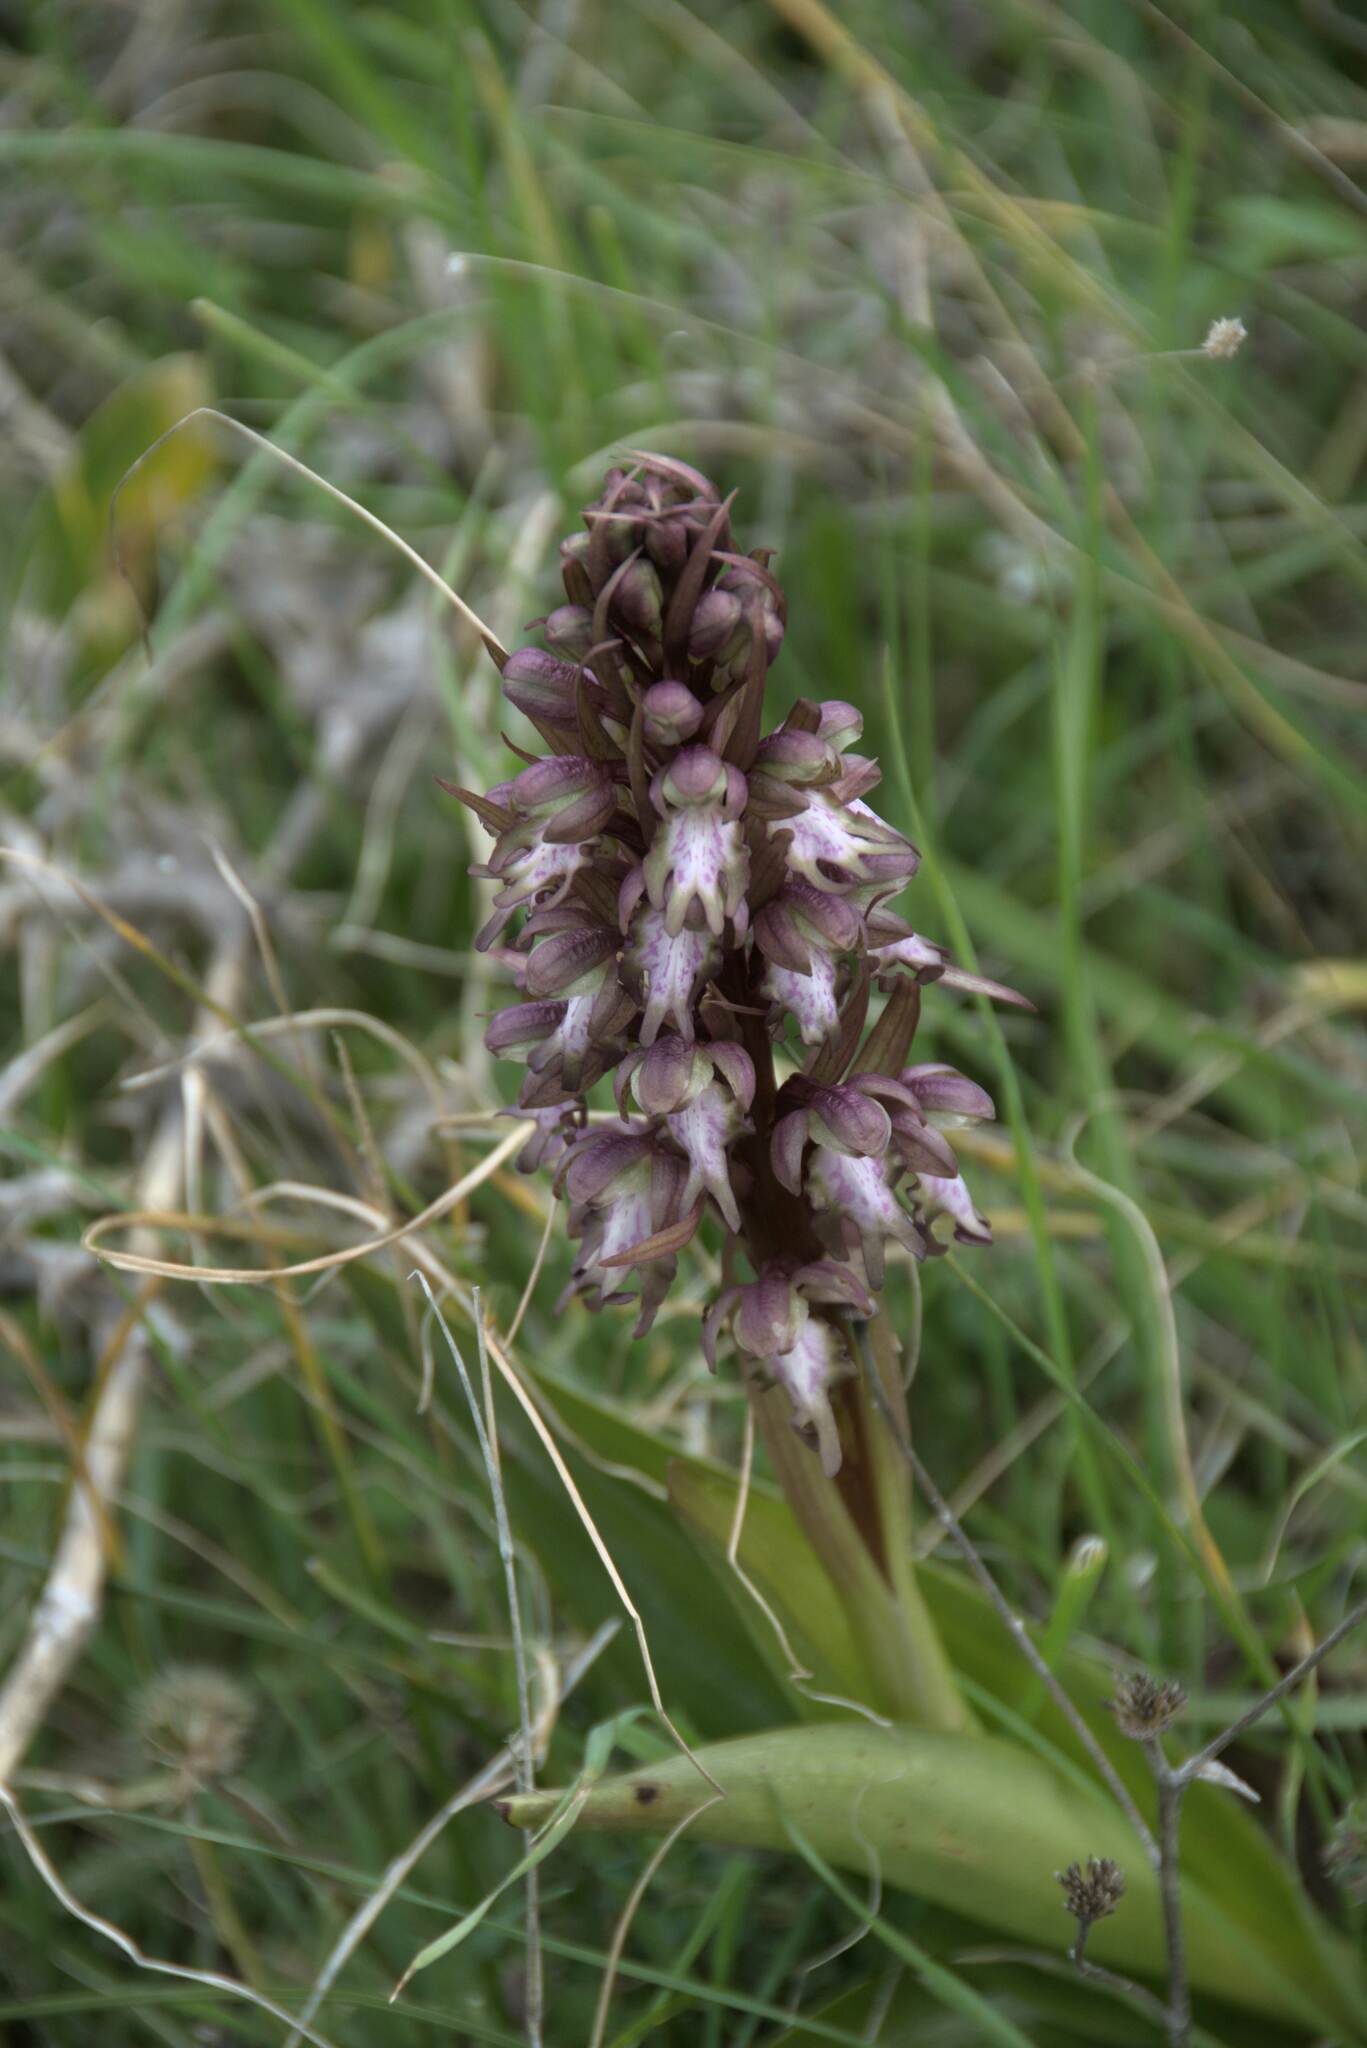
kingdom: Plantae
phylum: Tracheophyta
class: Liliopsida
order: Asparagales
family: Orchidaceae
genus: Himantoglossum
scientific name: Himantoglossum robertianum
